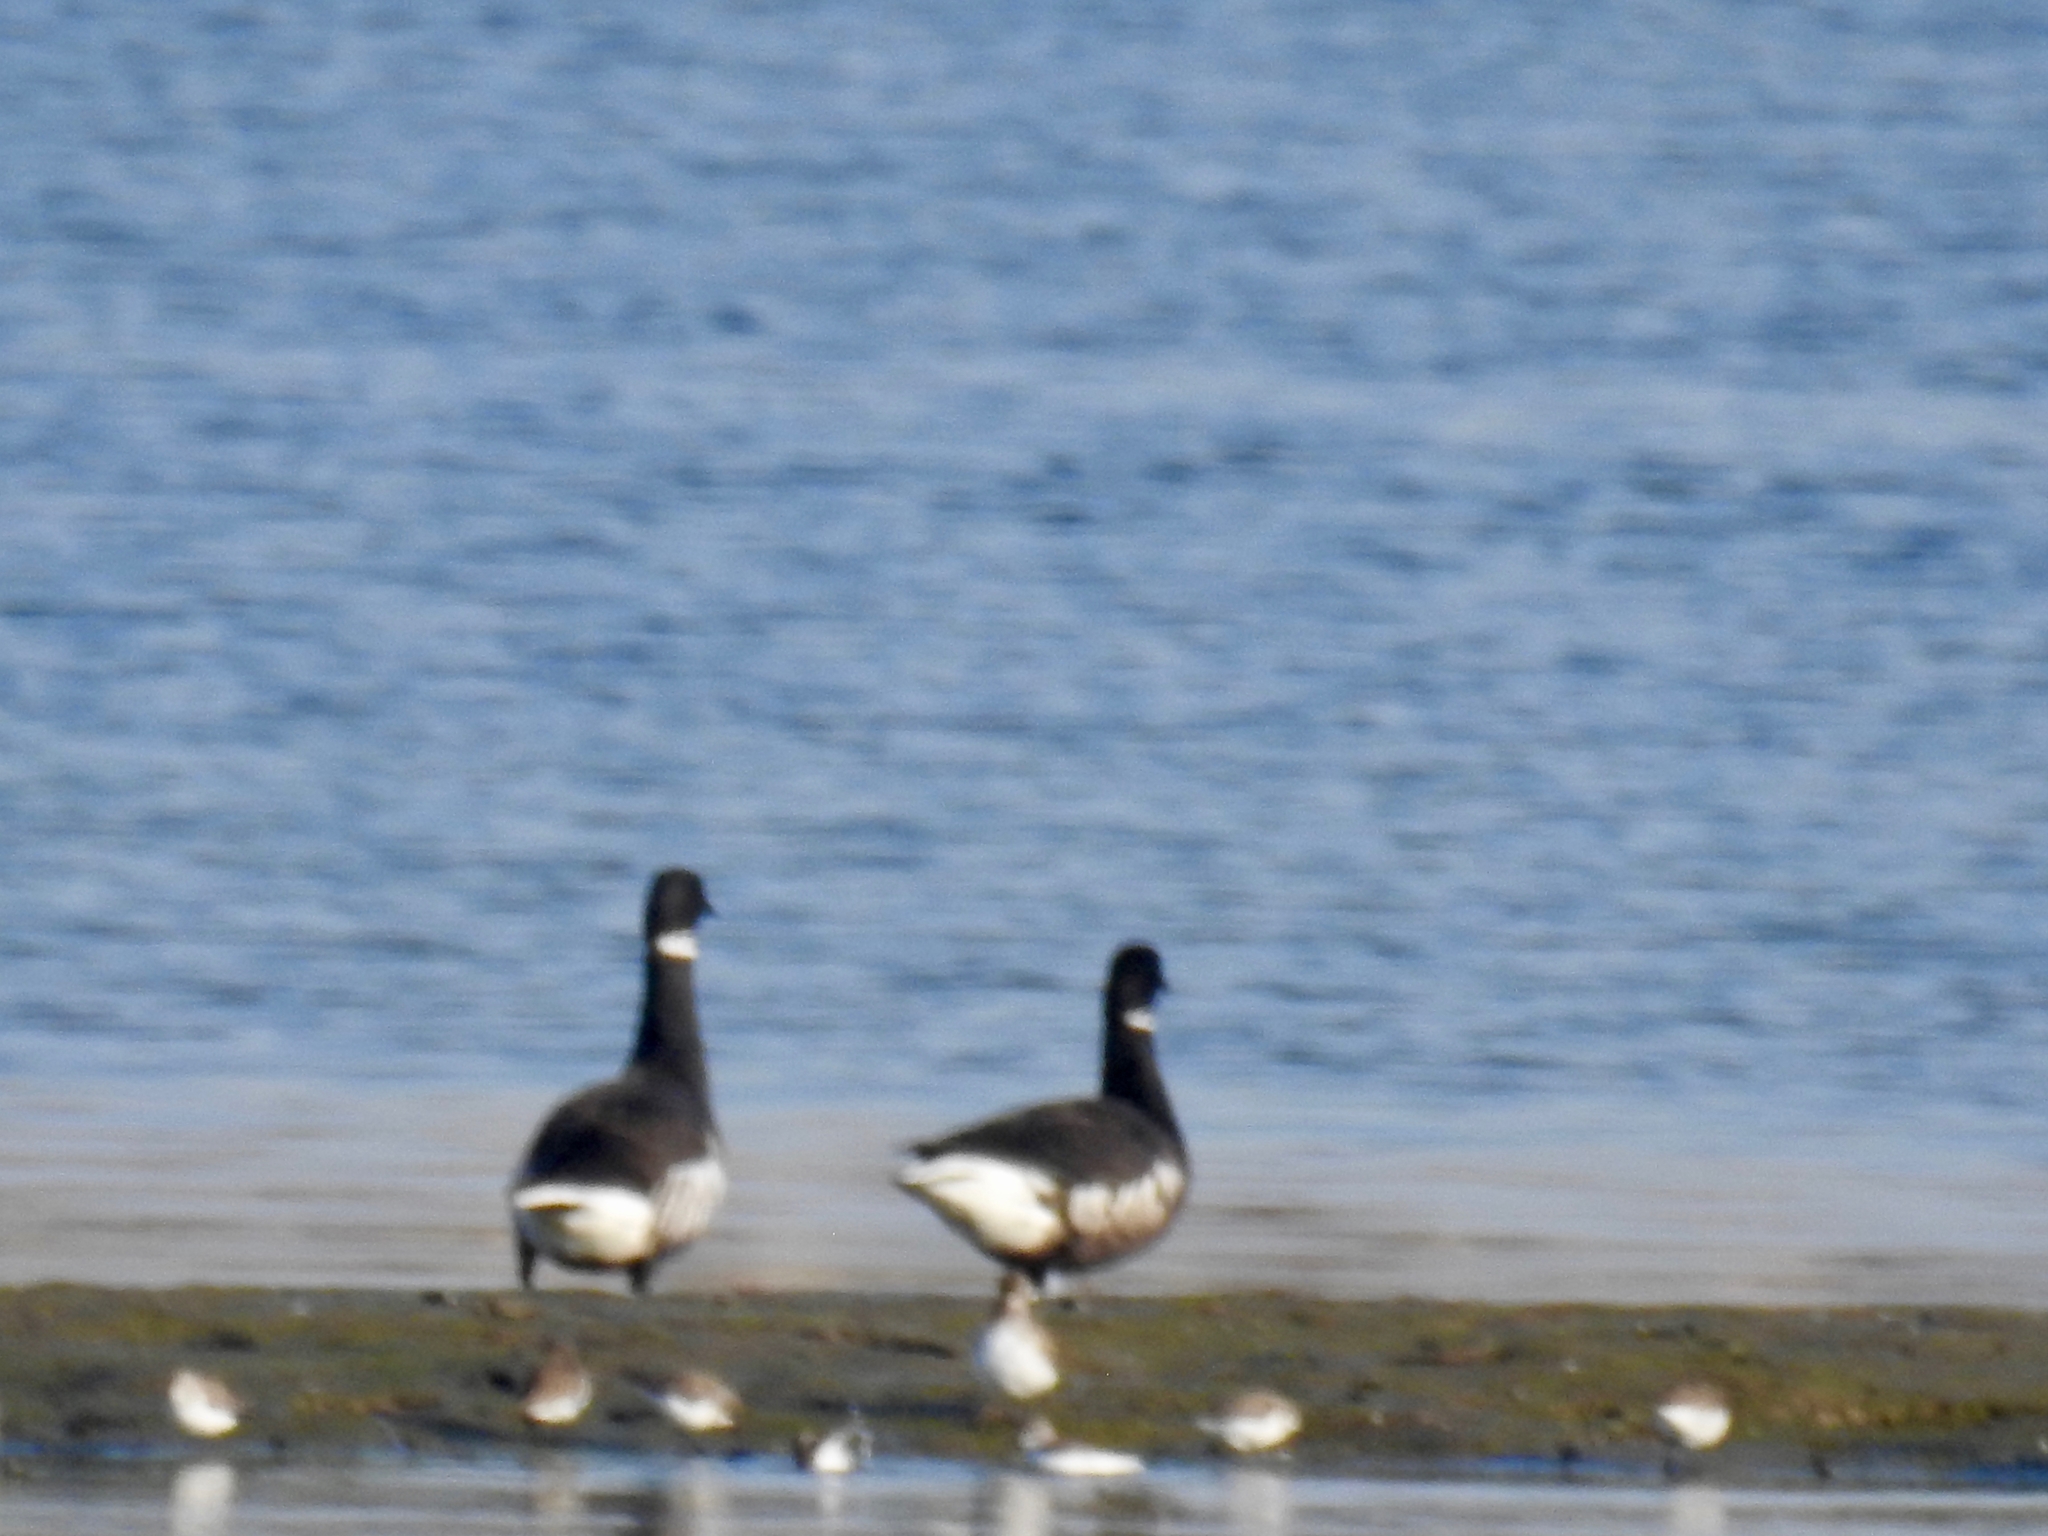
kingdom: Animalia
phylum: Chordata
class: Aves
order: Anseriformes
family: Anatidae
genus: Branta
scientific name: Branta bernicla
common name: Brant goose
